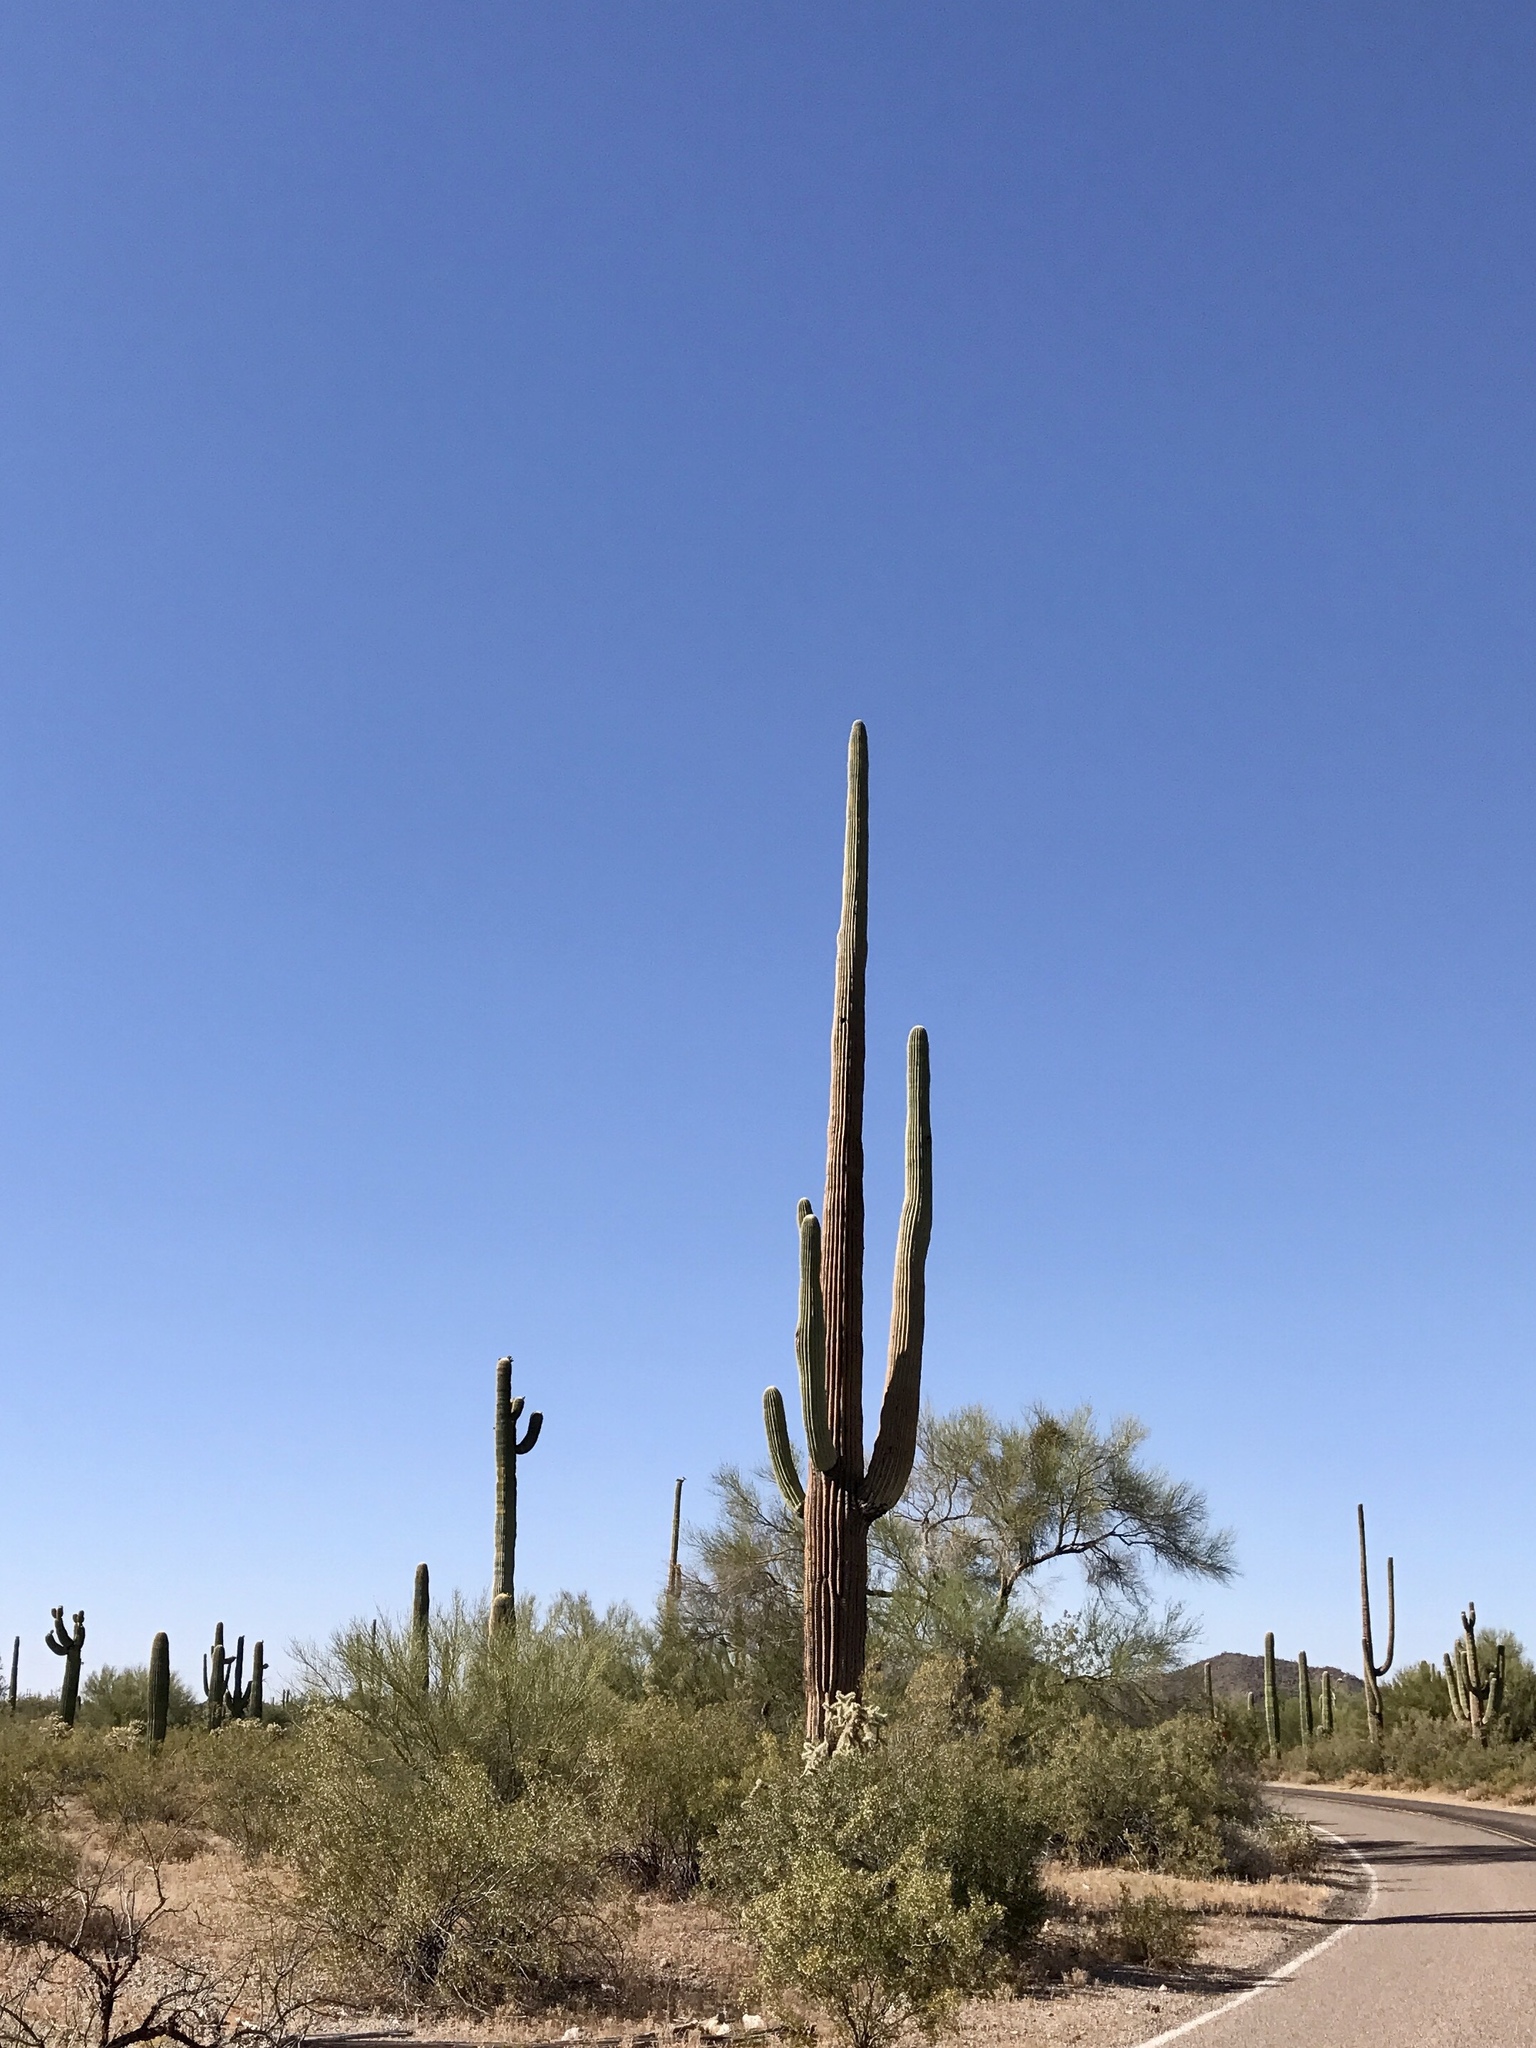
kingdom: Plantae
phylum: Tracheophyta
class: Magnoliopsida
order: Caryophyllales
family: Cactaceae
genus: Carnegiea
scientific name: Carnegiea gigantea
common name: Saguaro
